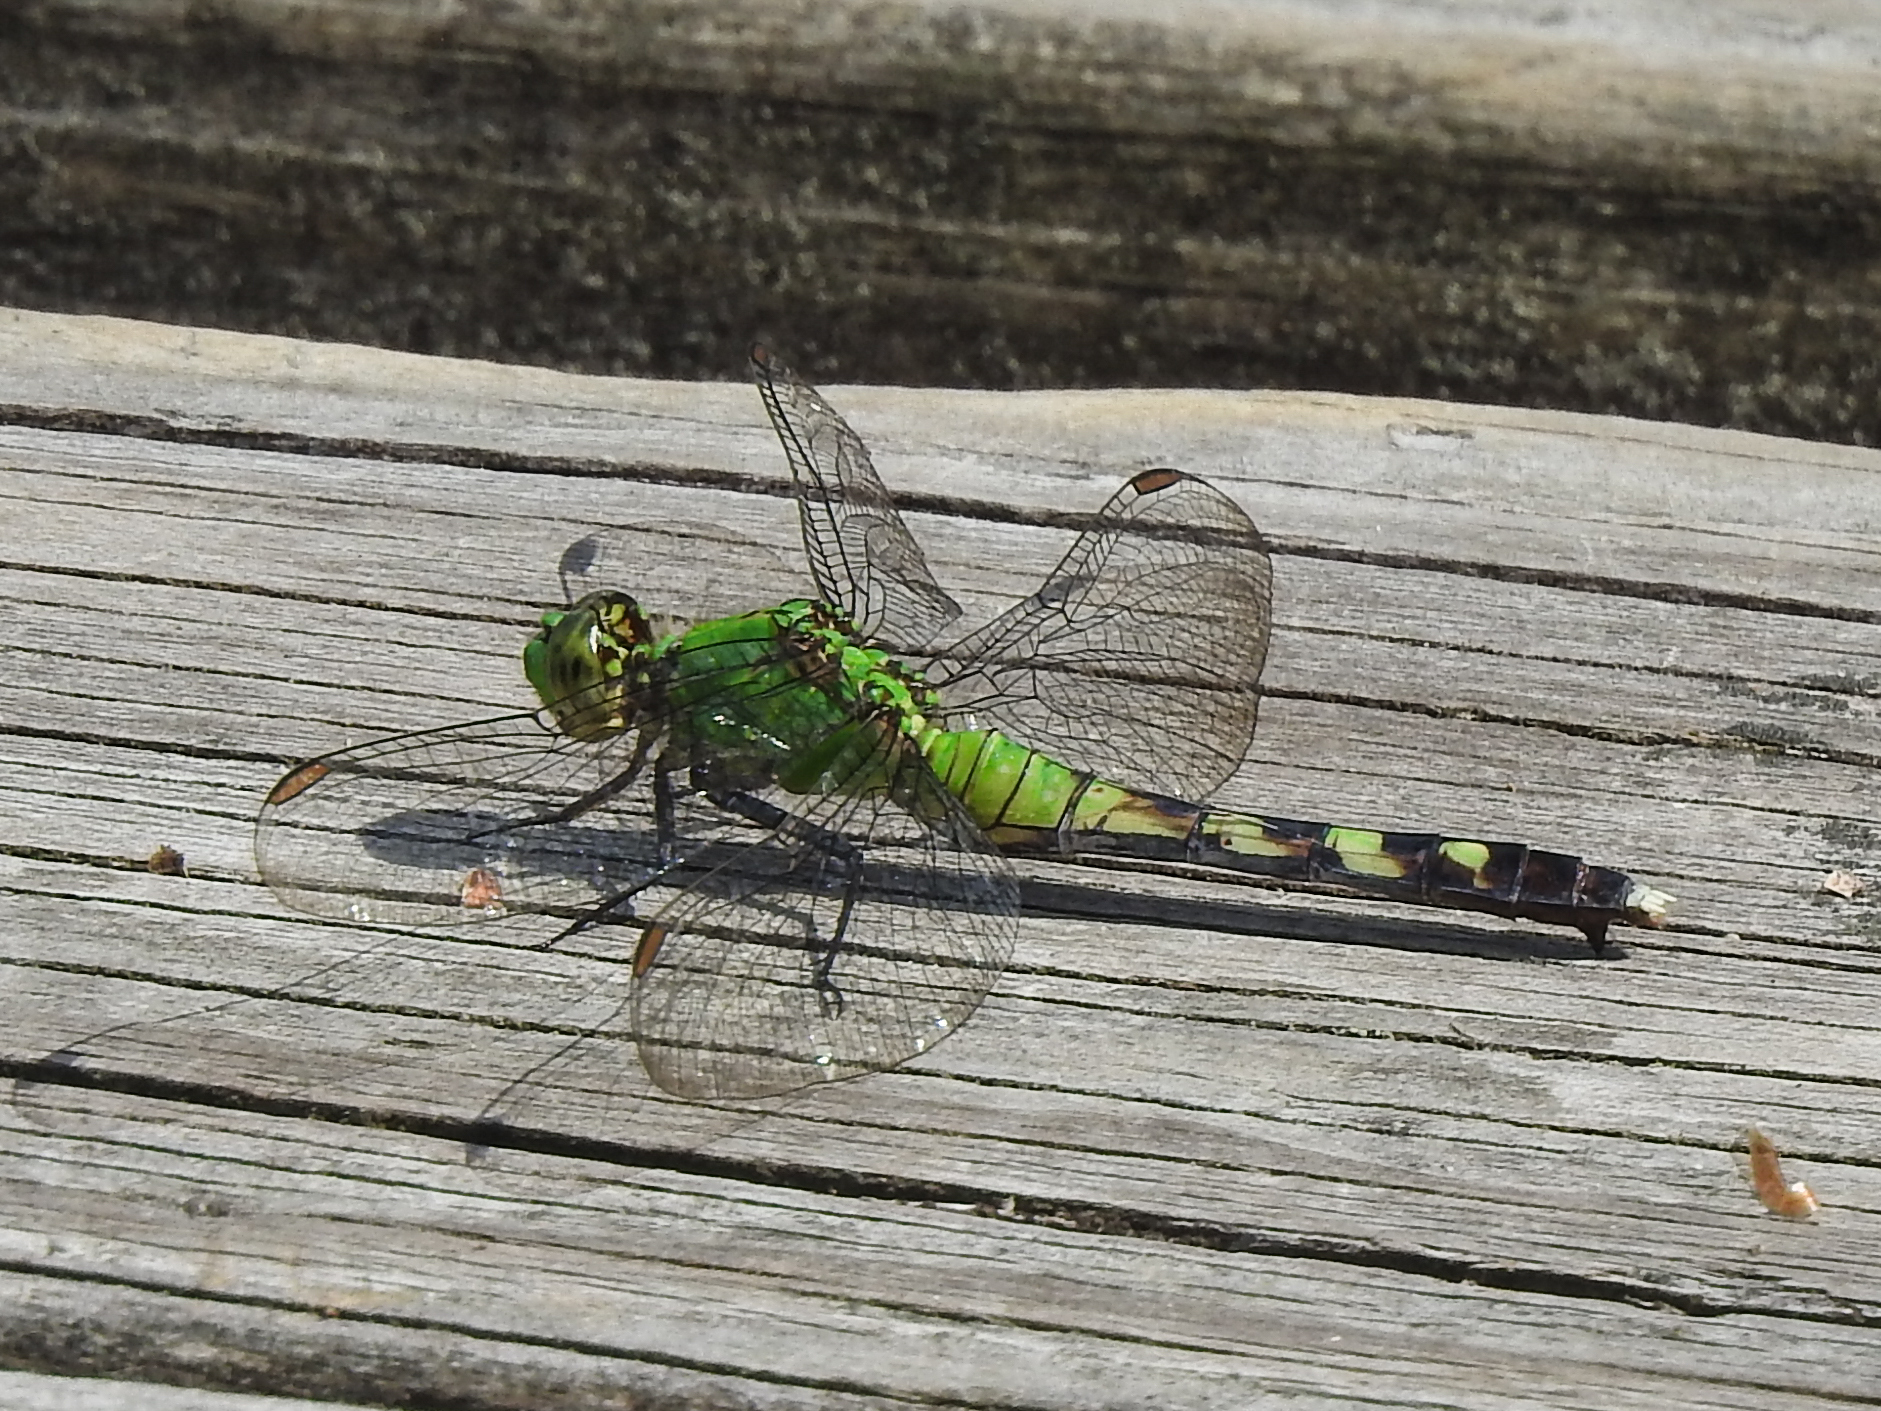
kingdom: Animalia
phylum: Arthropoda
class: Insecta
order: Odonata
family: Libellulidae
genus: Erythemis
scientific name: Erythemis simplicicollis
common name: Eastern pondhawk
